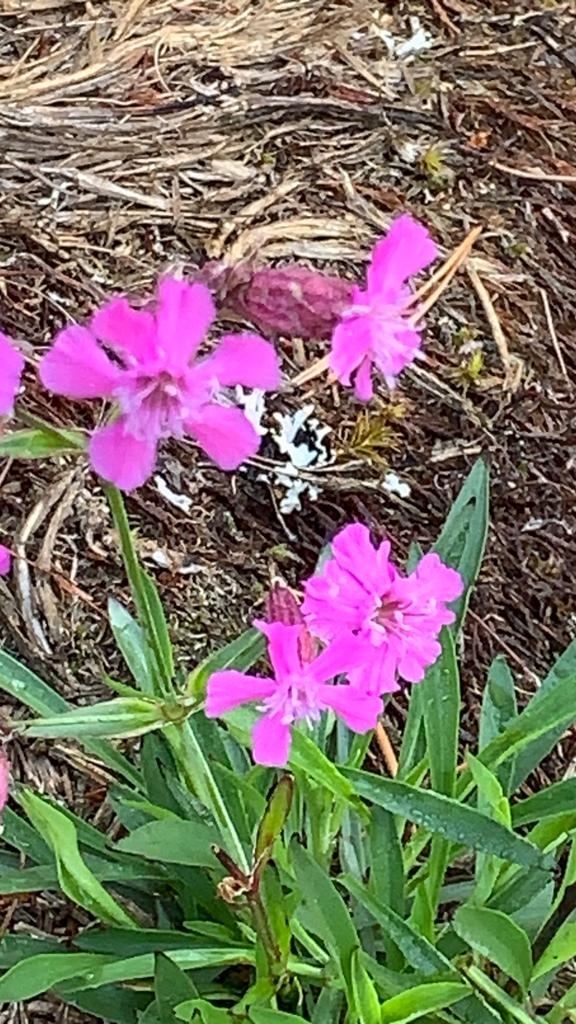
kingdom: Plantae
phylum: Tracheophyta
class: Magnoliopsida
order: Caryophyllales
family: Caryophyllaceae
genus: Viscaria
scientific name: Viscaria vulgaris
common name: Clammy campion
